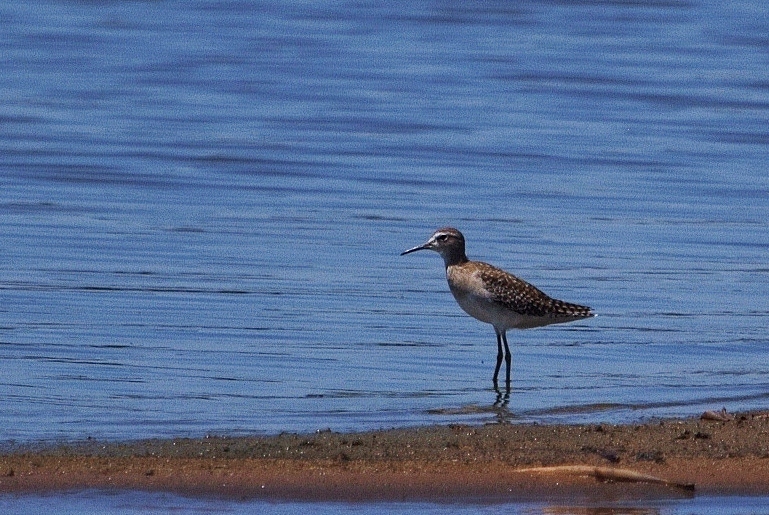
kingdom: Animalia
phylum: Chordata
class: Aves
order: Charadriiformes
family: Scolopacidae
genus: Tringa
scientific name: Tringa glareola
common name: Wood sandpiper
